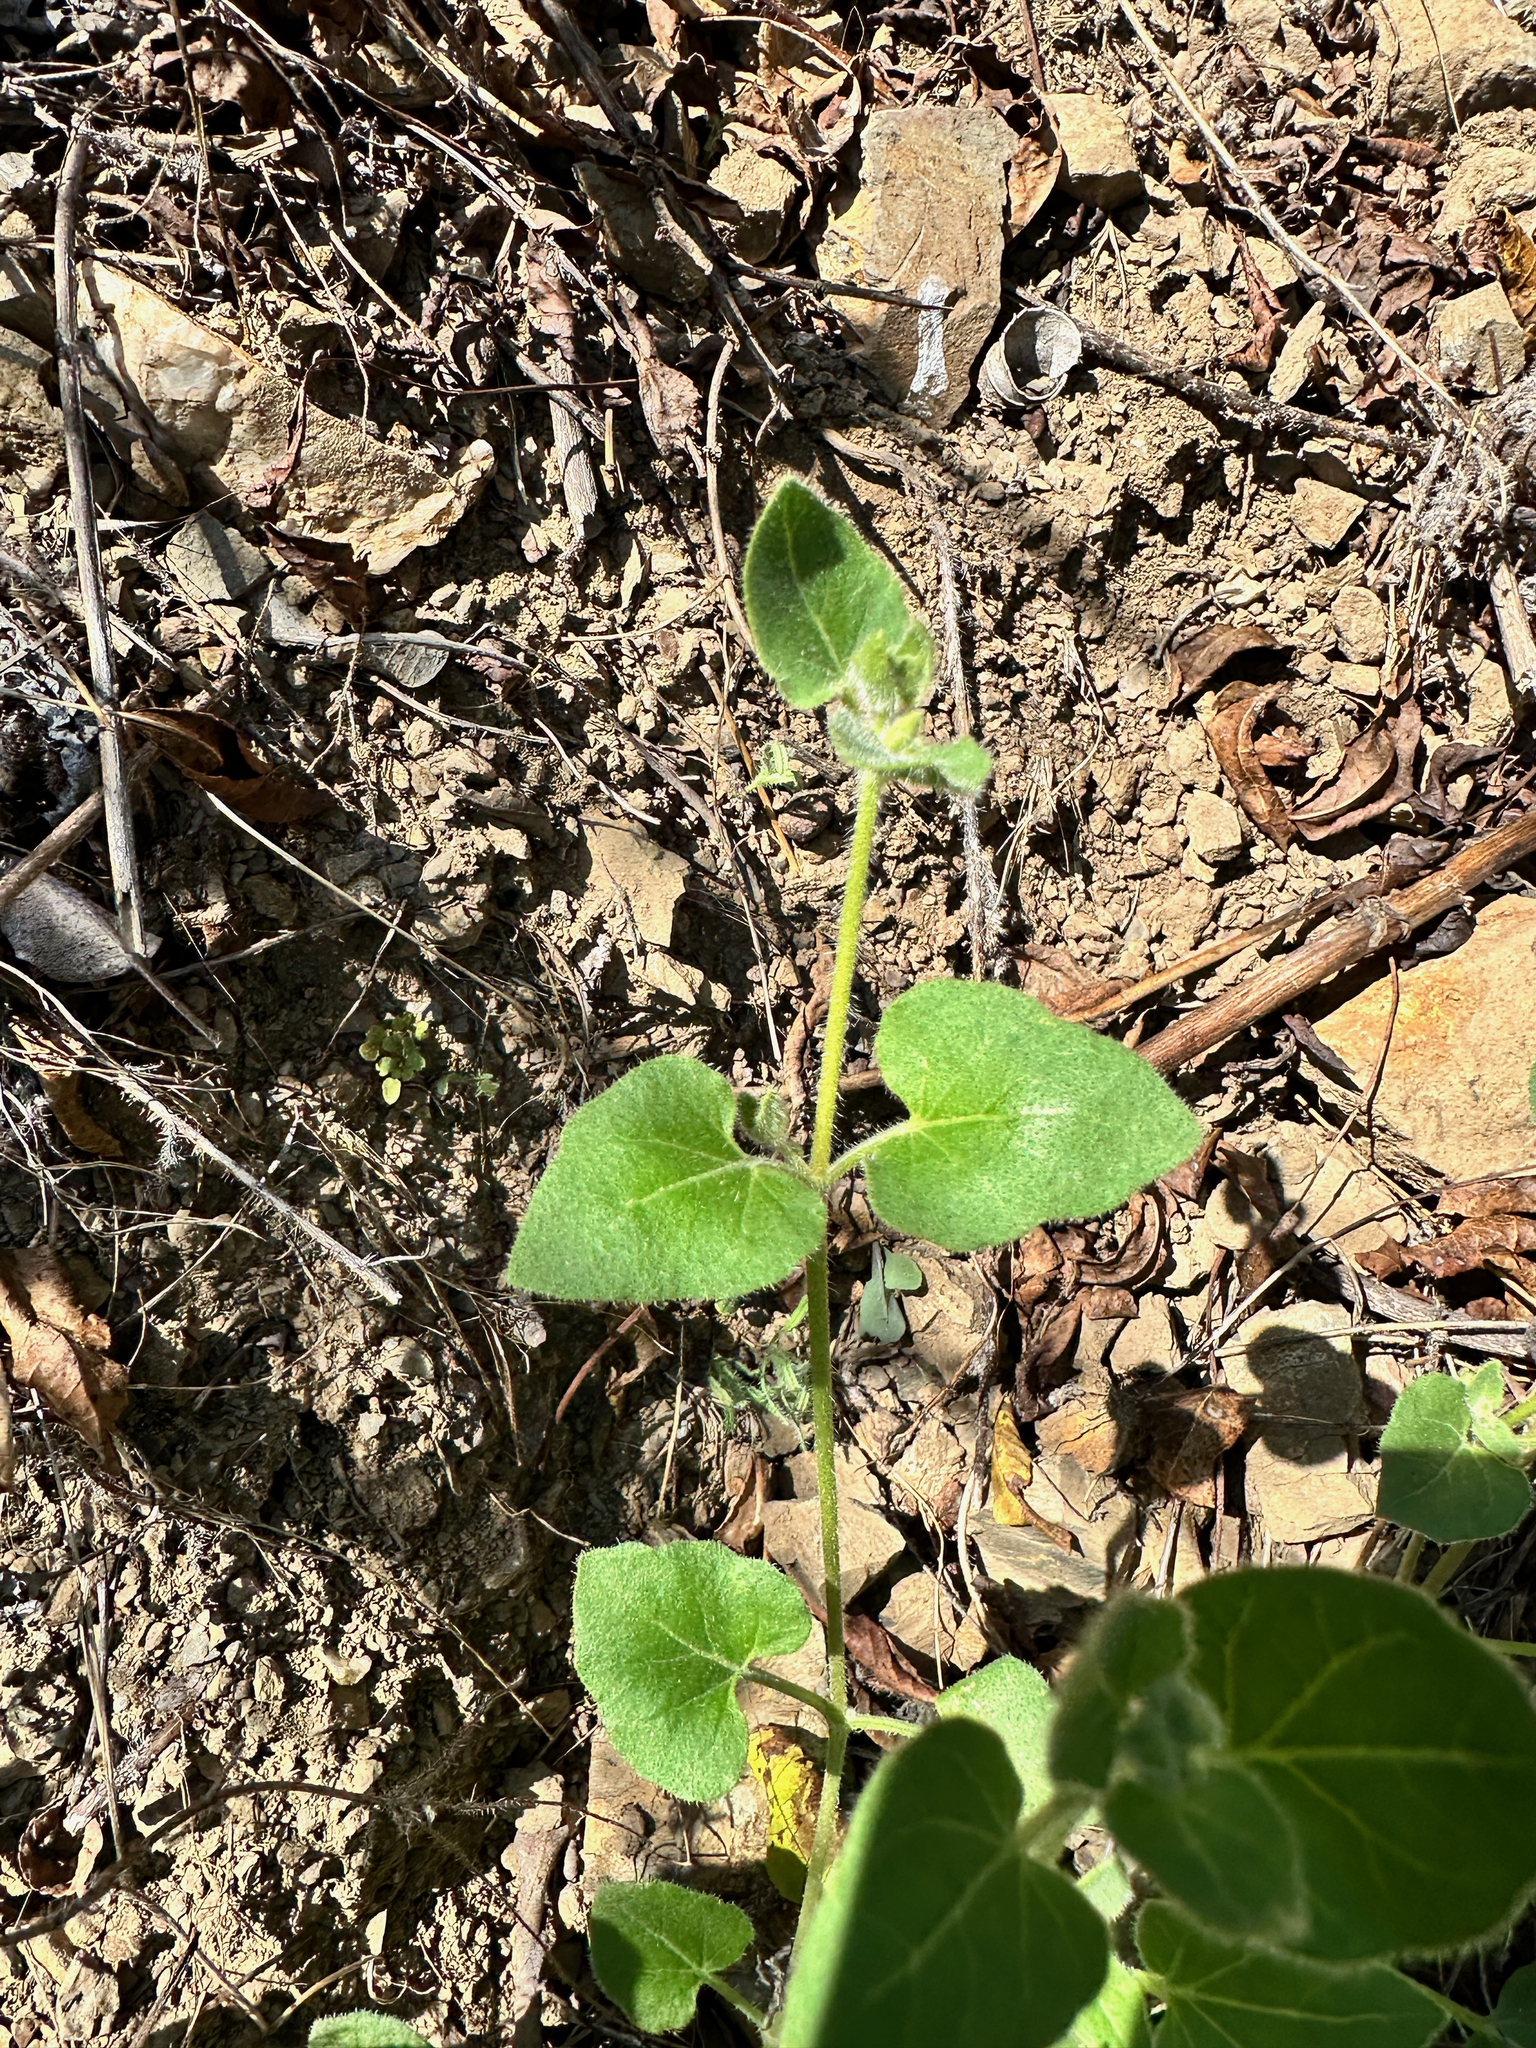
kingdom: Plantae
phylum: Tracheophyta
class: Magnoliopsida
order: Caryophyllales
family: Nyctaginaceae
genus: Mirabilis
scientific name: Mirabilis laevis
